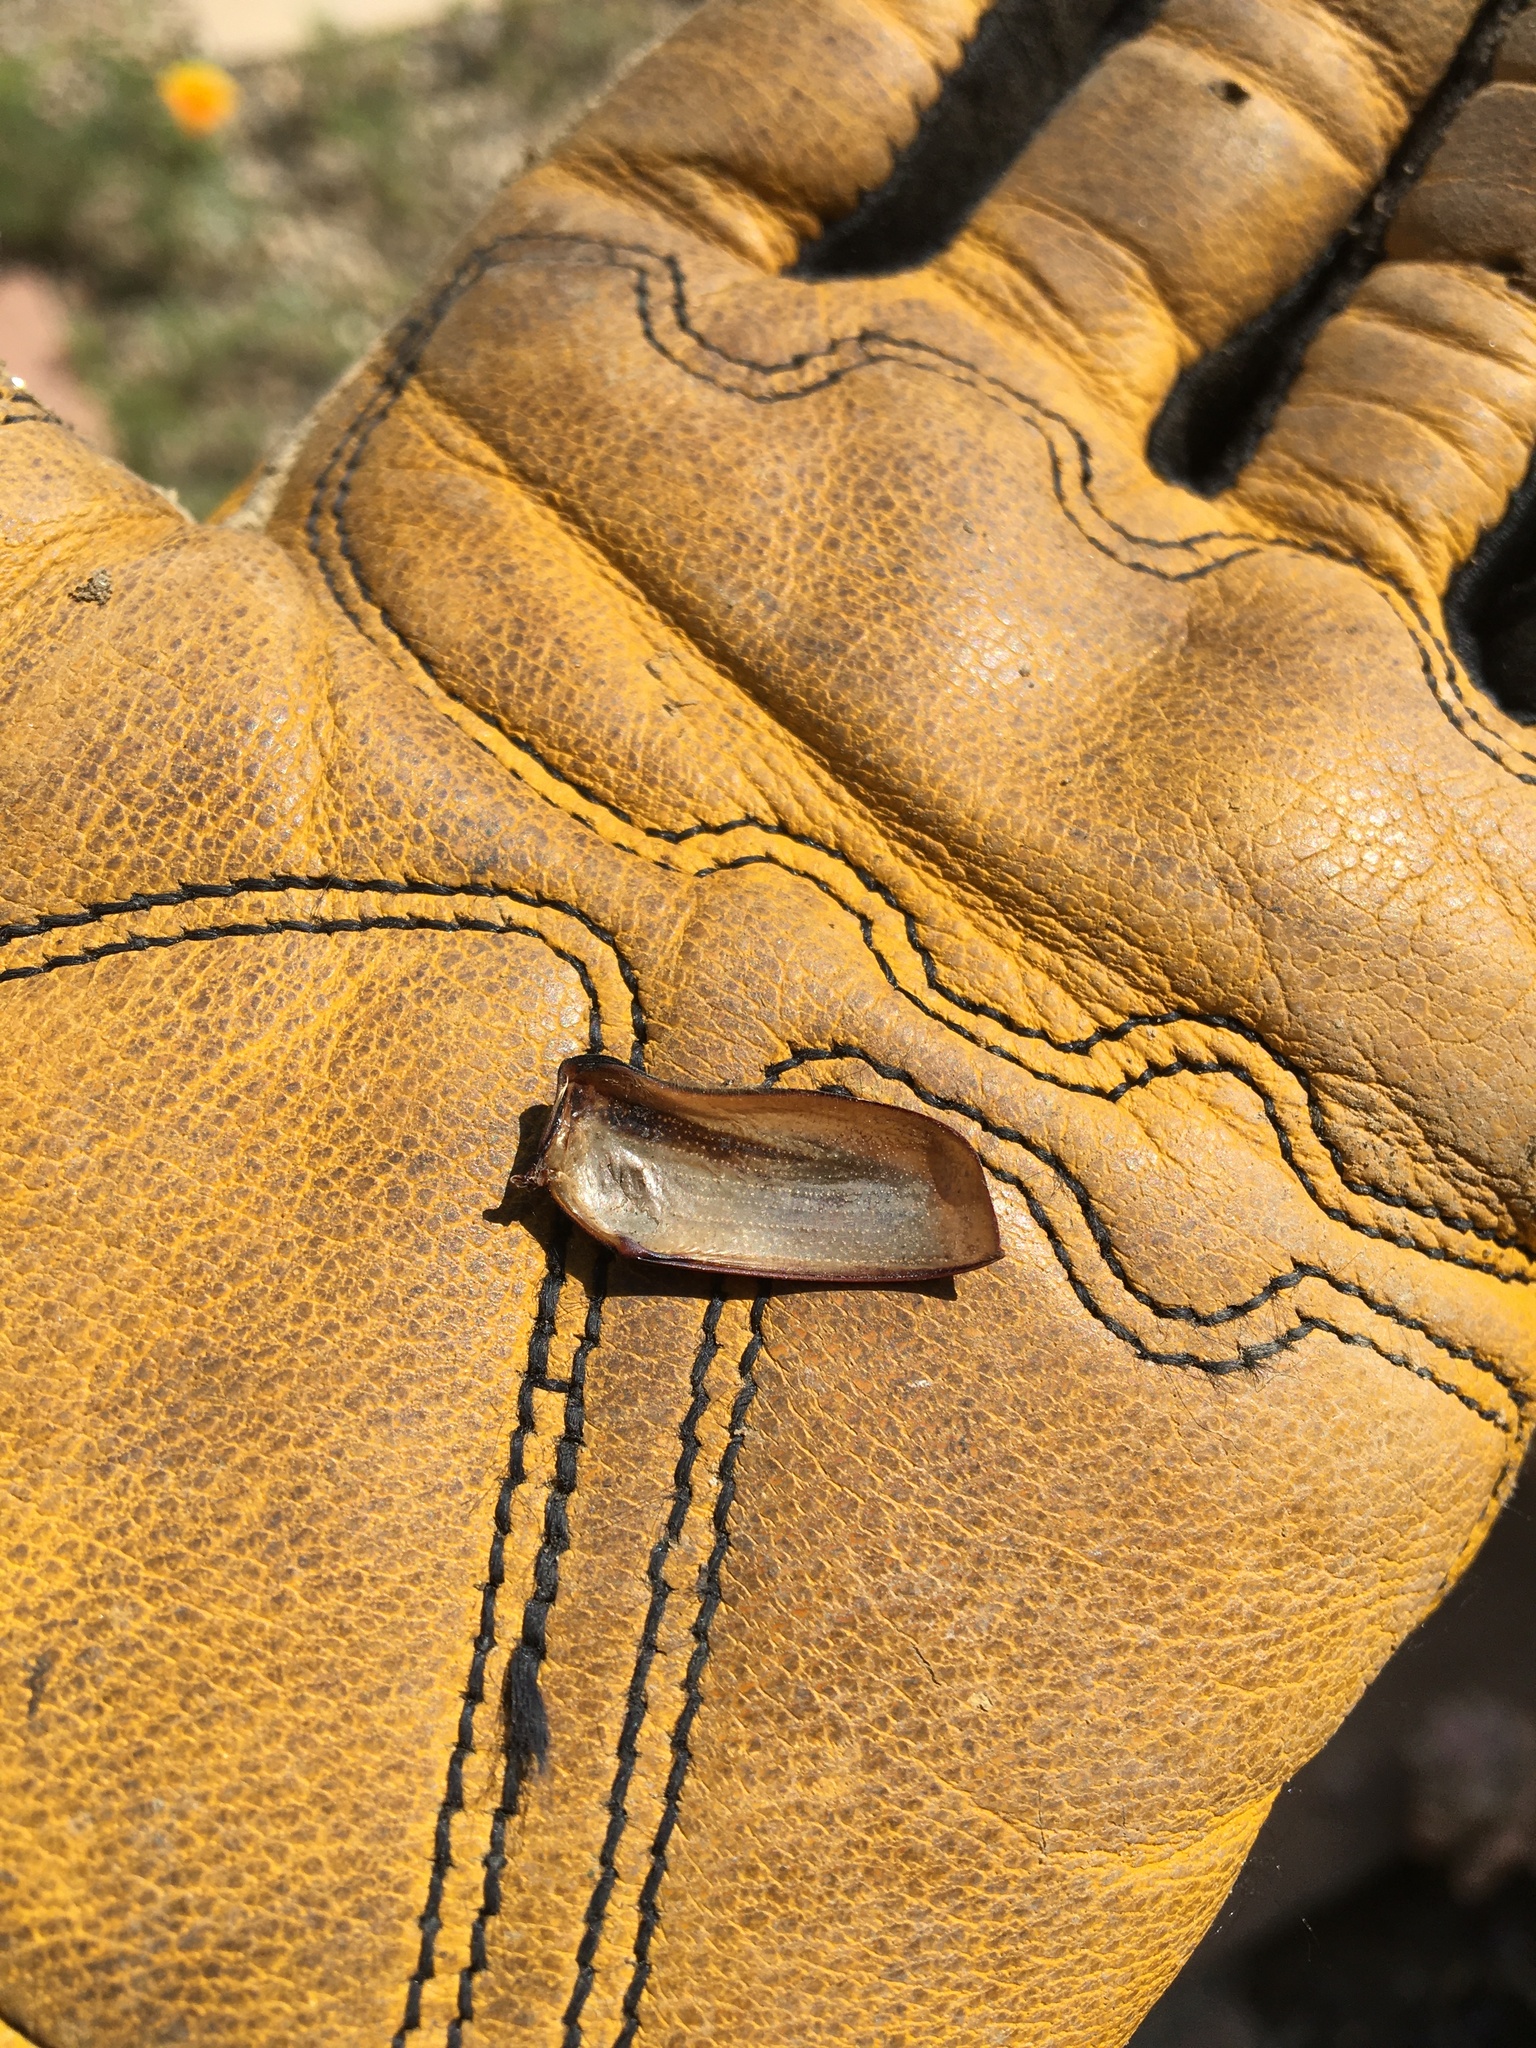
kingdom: Animalia
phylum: Arthropoda
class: Insecta
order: Coleoptera
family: Scarabaeidae
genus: Cotinis
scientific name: Cotinis mutabilis
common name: Figeater beetle
